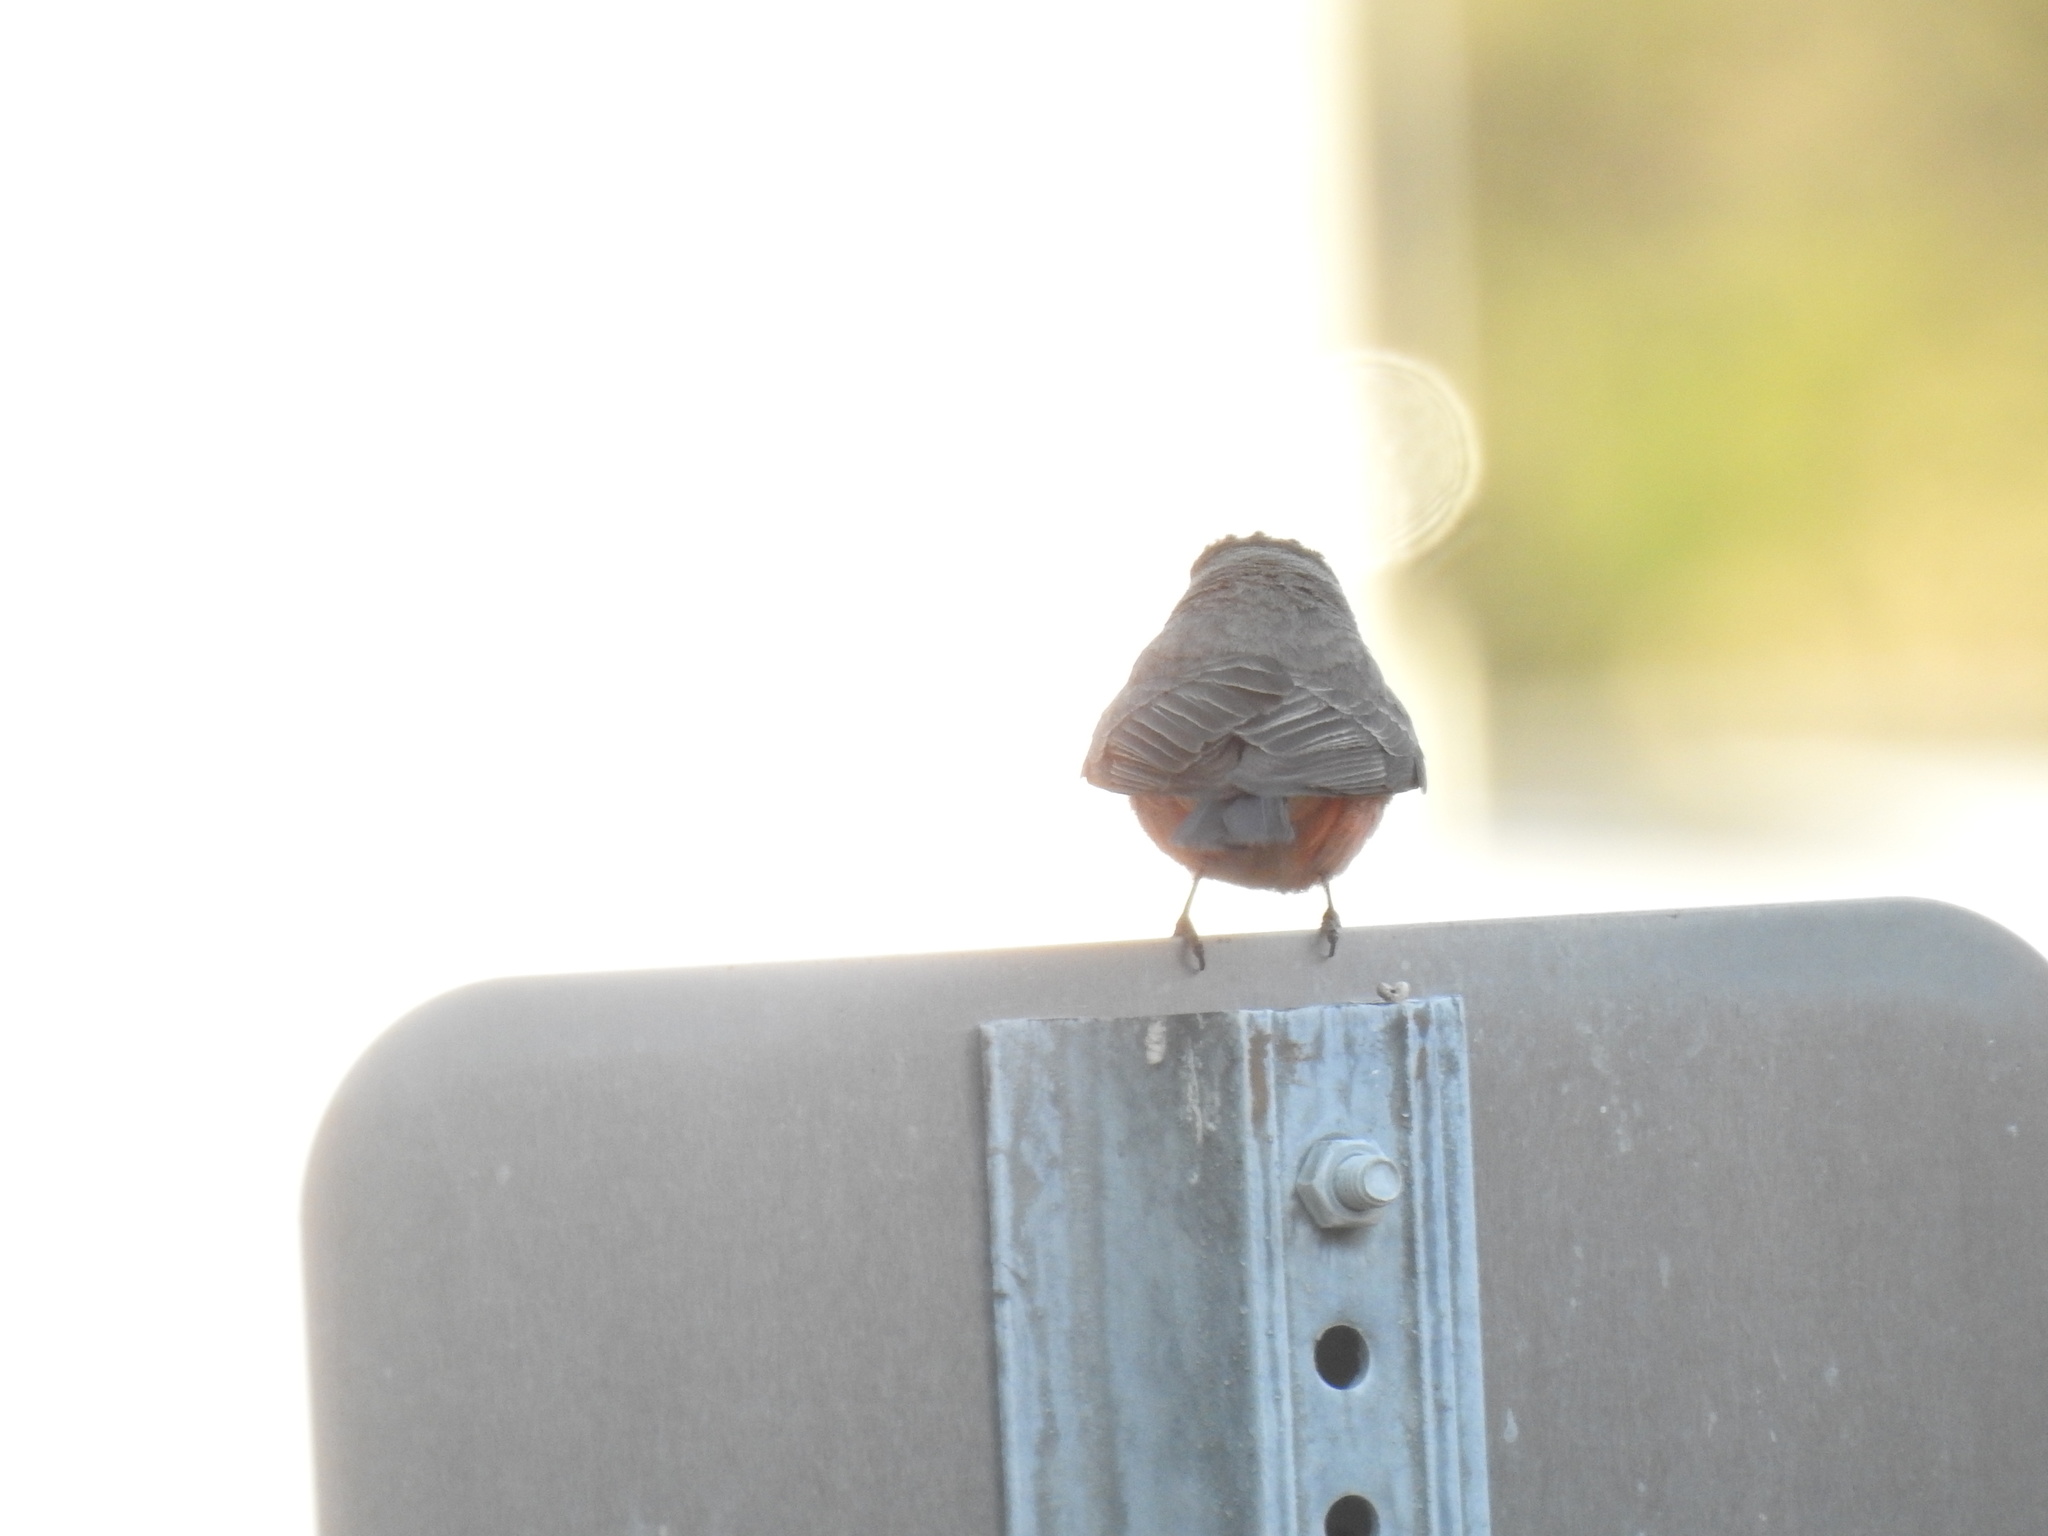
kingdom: Animalia
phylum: Chordata
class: Aves
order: Passeriformes
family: Tyrannidae
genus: Pyrocephalus
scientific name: Pyrocephalus rubinus
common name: Vermilion flycatcher
